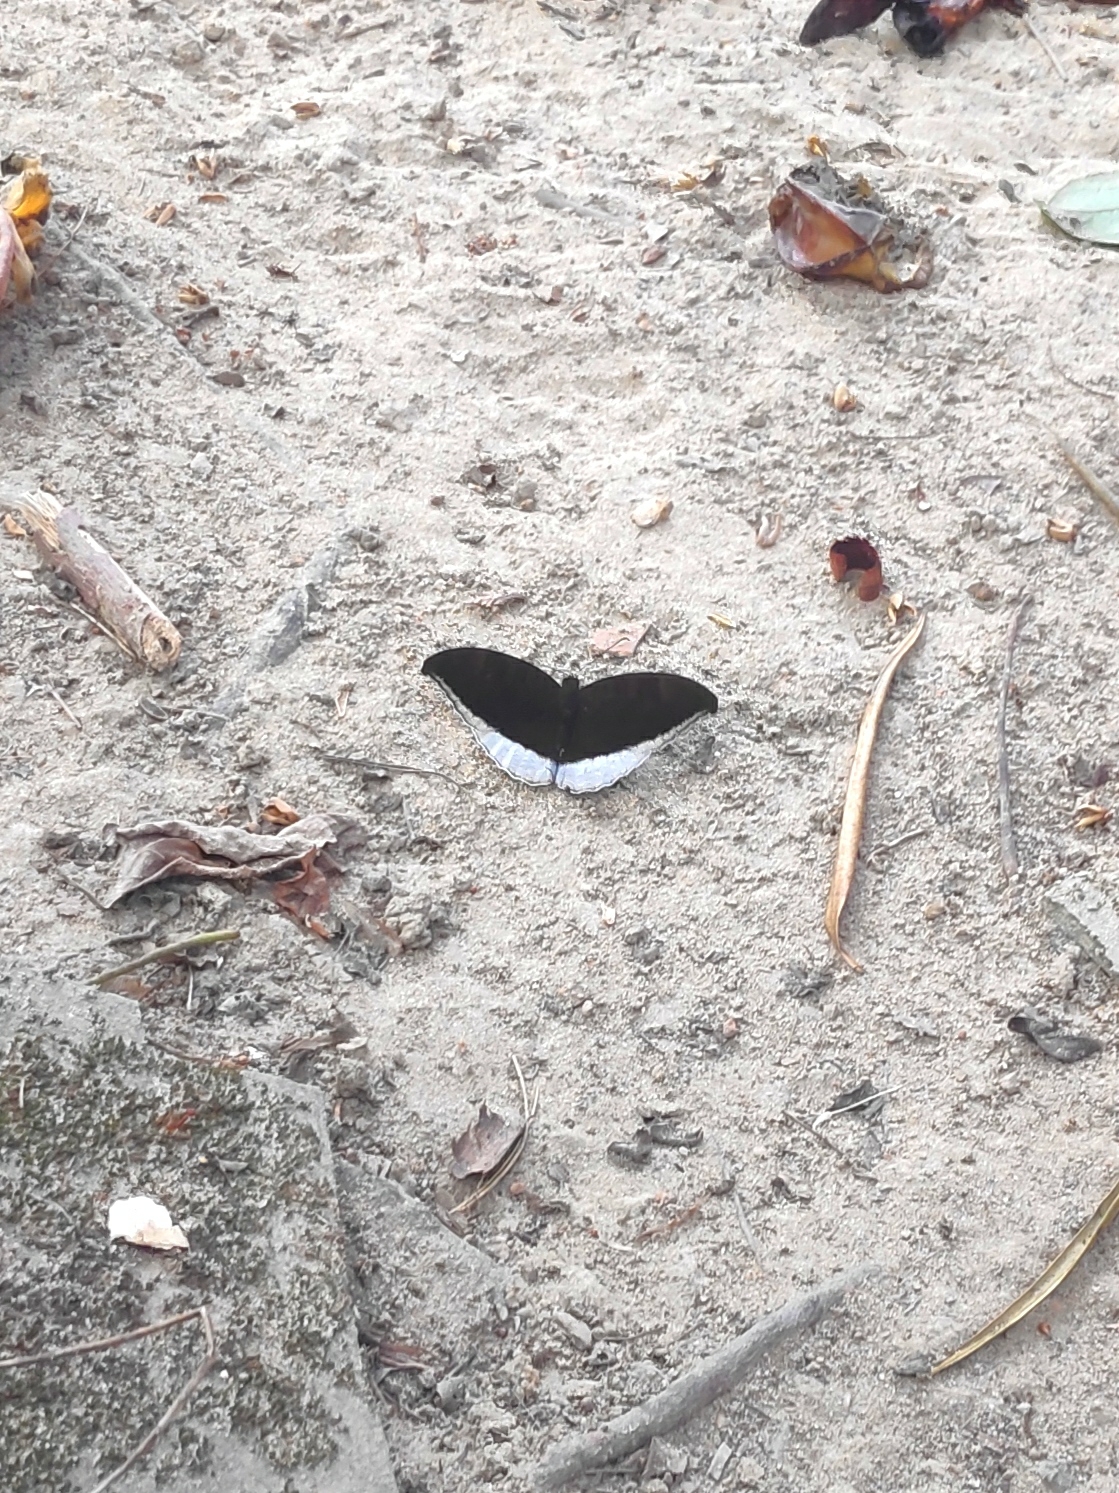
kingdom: Animalia
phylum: Arthropoda
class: Insecta
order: Lepidoptera
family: Nymphalidae
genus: Tanaecia
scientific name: Tanaecia lepidea
